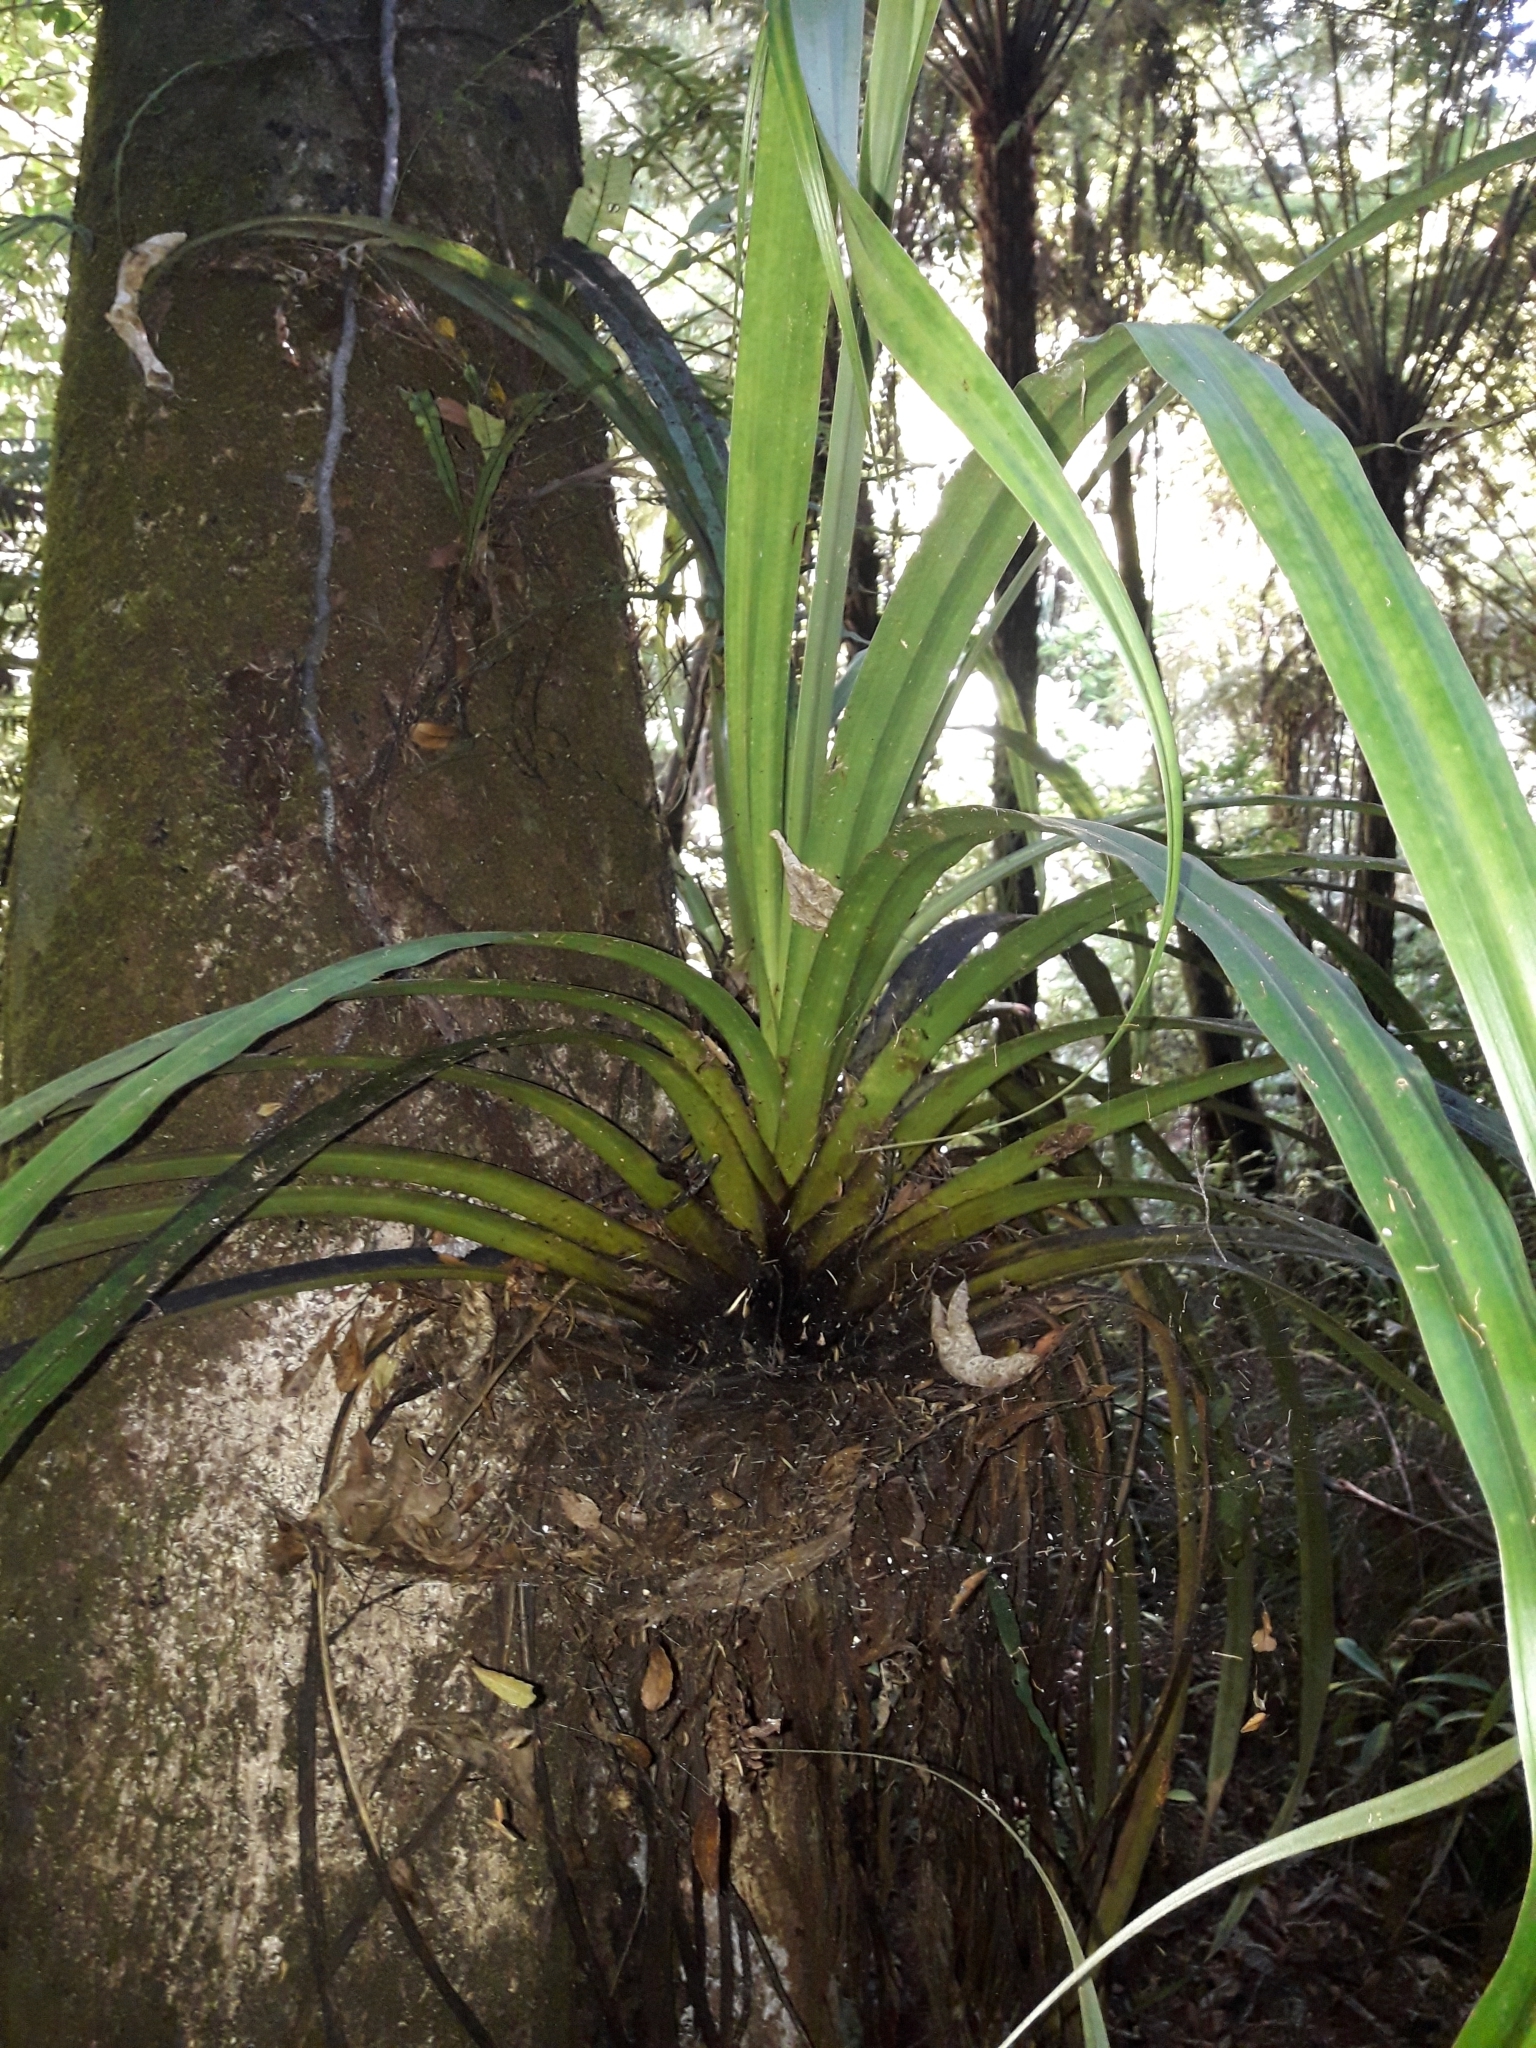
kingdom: Plantae
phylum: Tracheophyta
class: Liliopsida
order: Asparagales
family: Asteliaceae
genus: Astelia
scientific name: Astelia hastata
